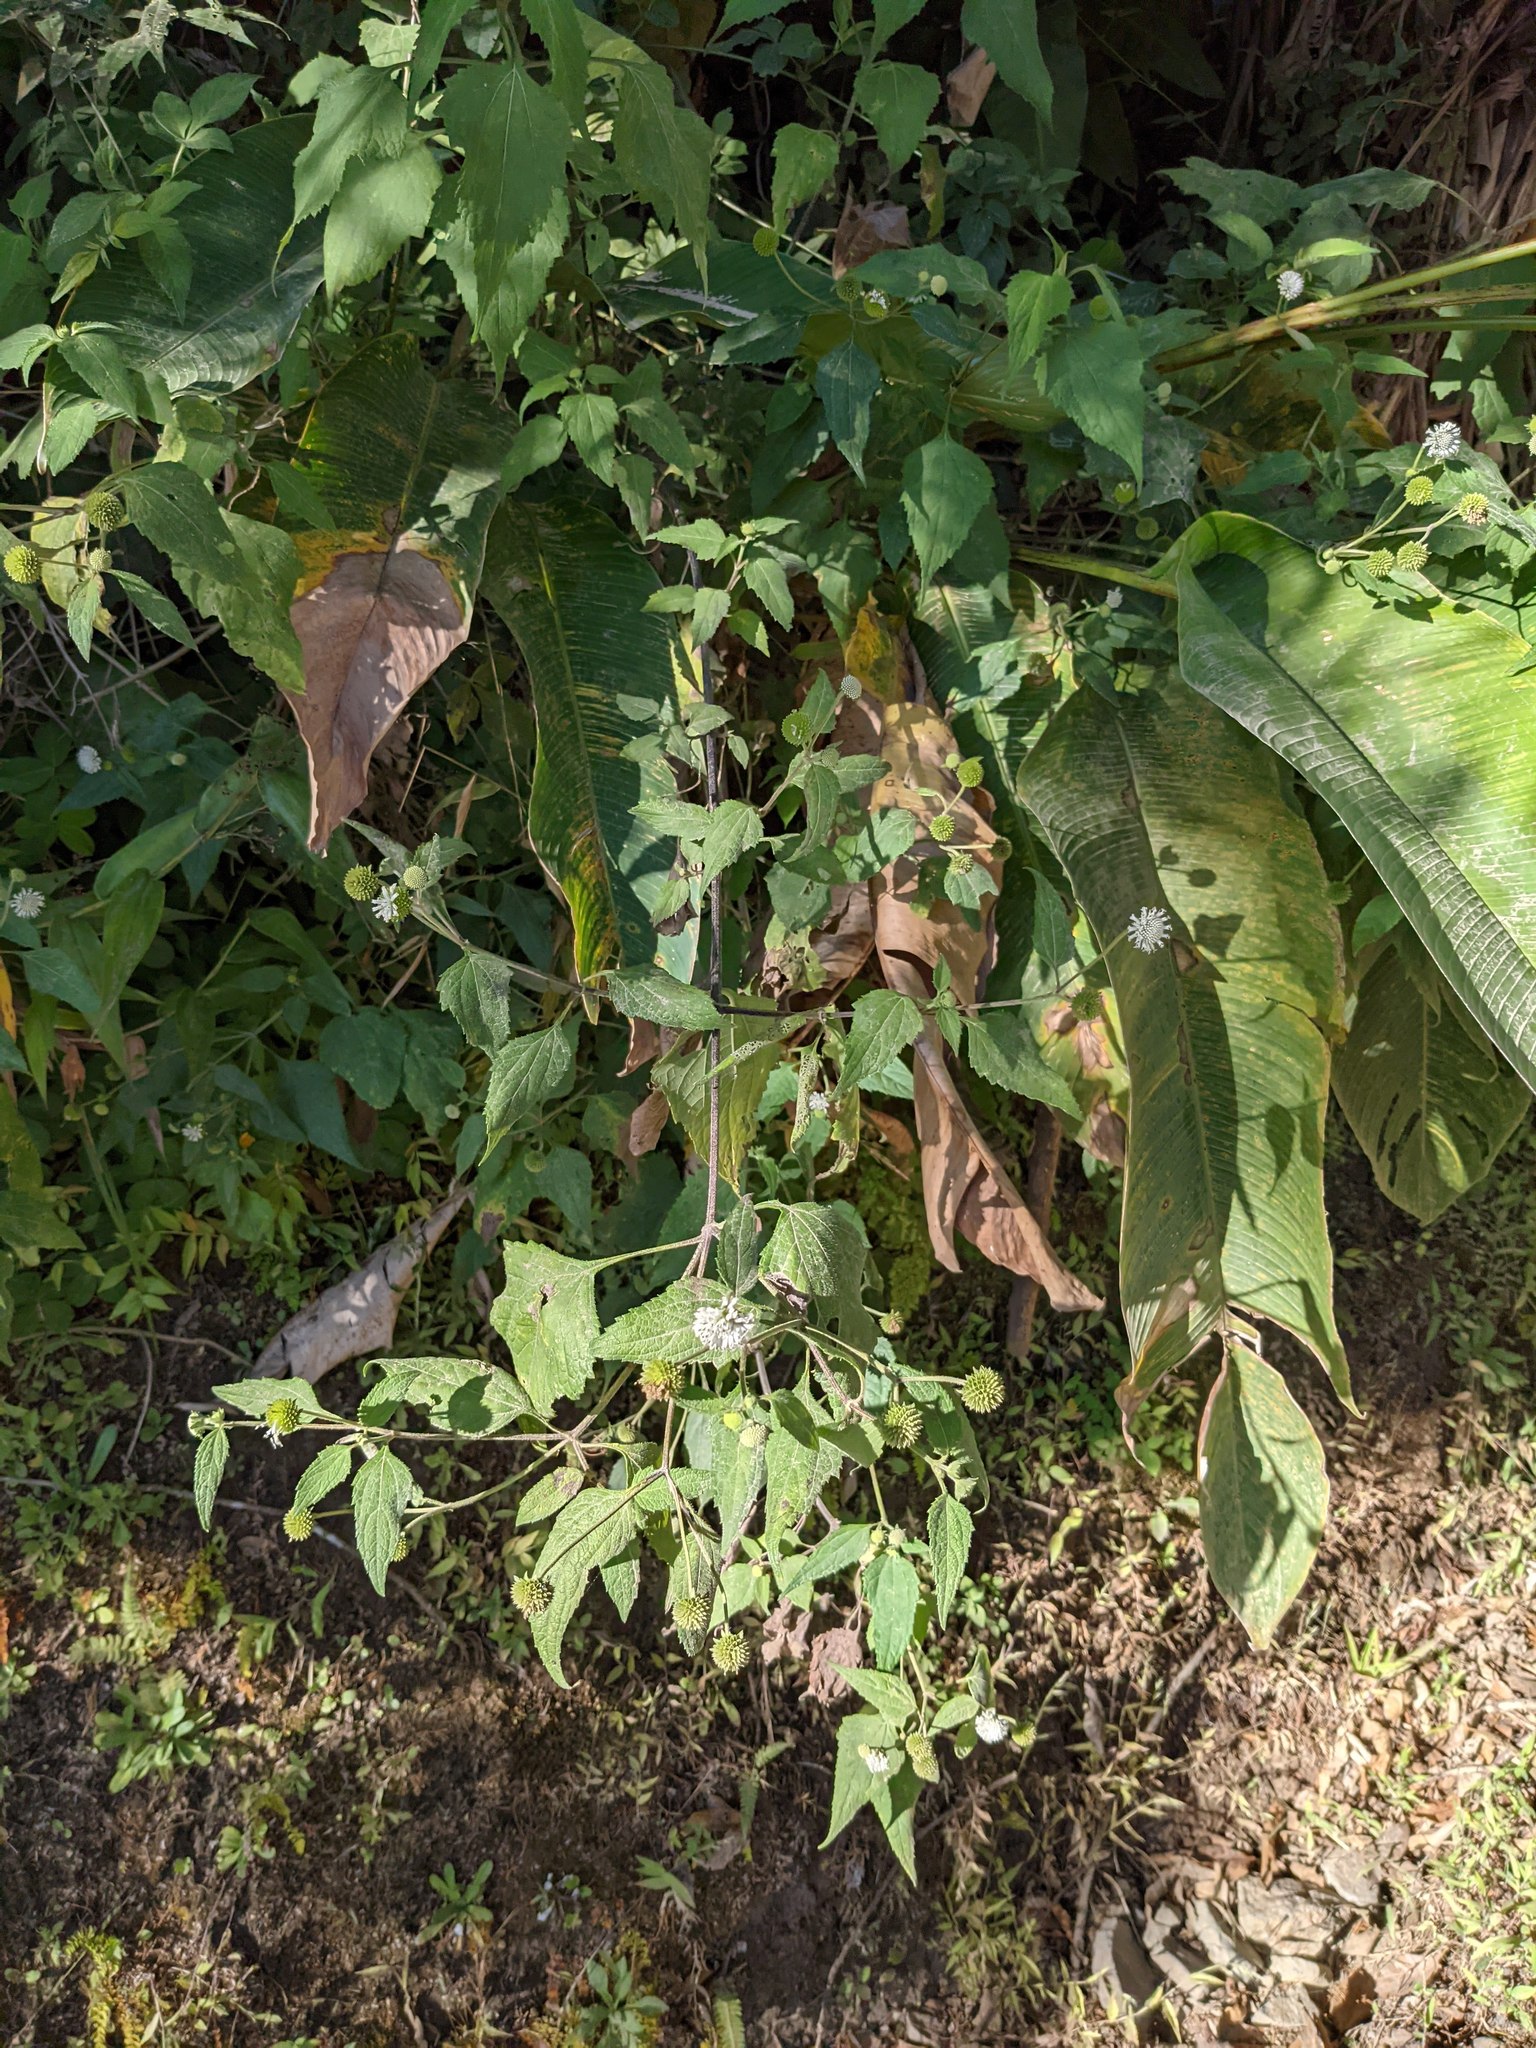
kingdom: Plantae
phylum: Tracheophyta
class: Magnoliopsida
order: Asterales
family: Asteraceae
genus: Melanthera
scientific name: Melanthera nivea
